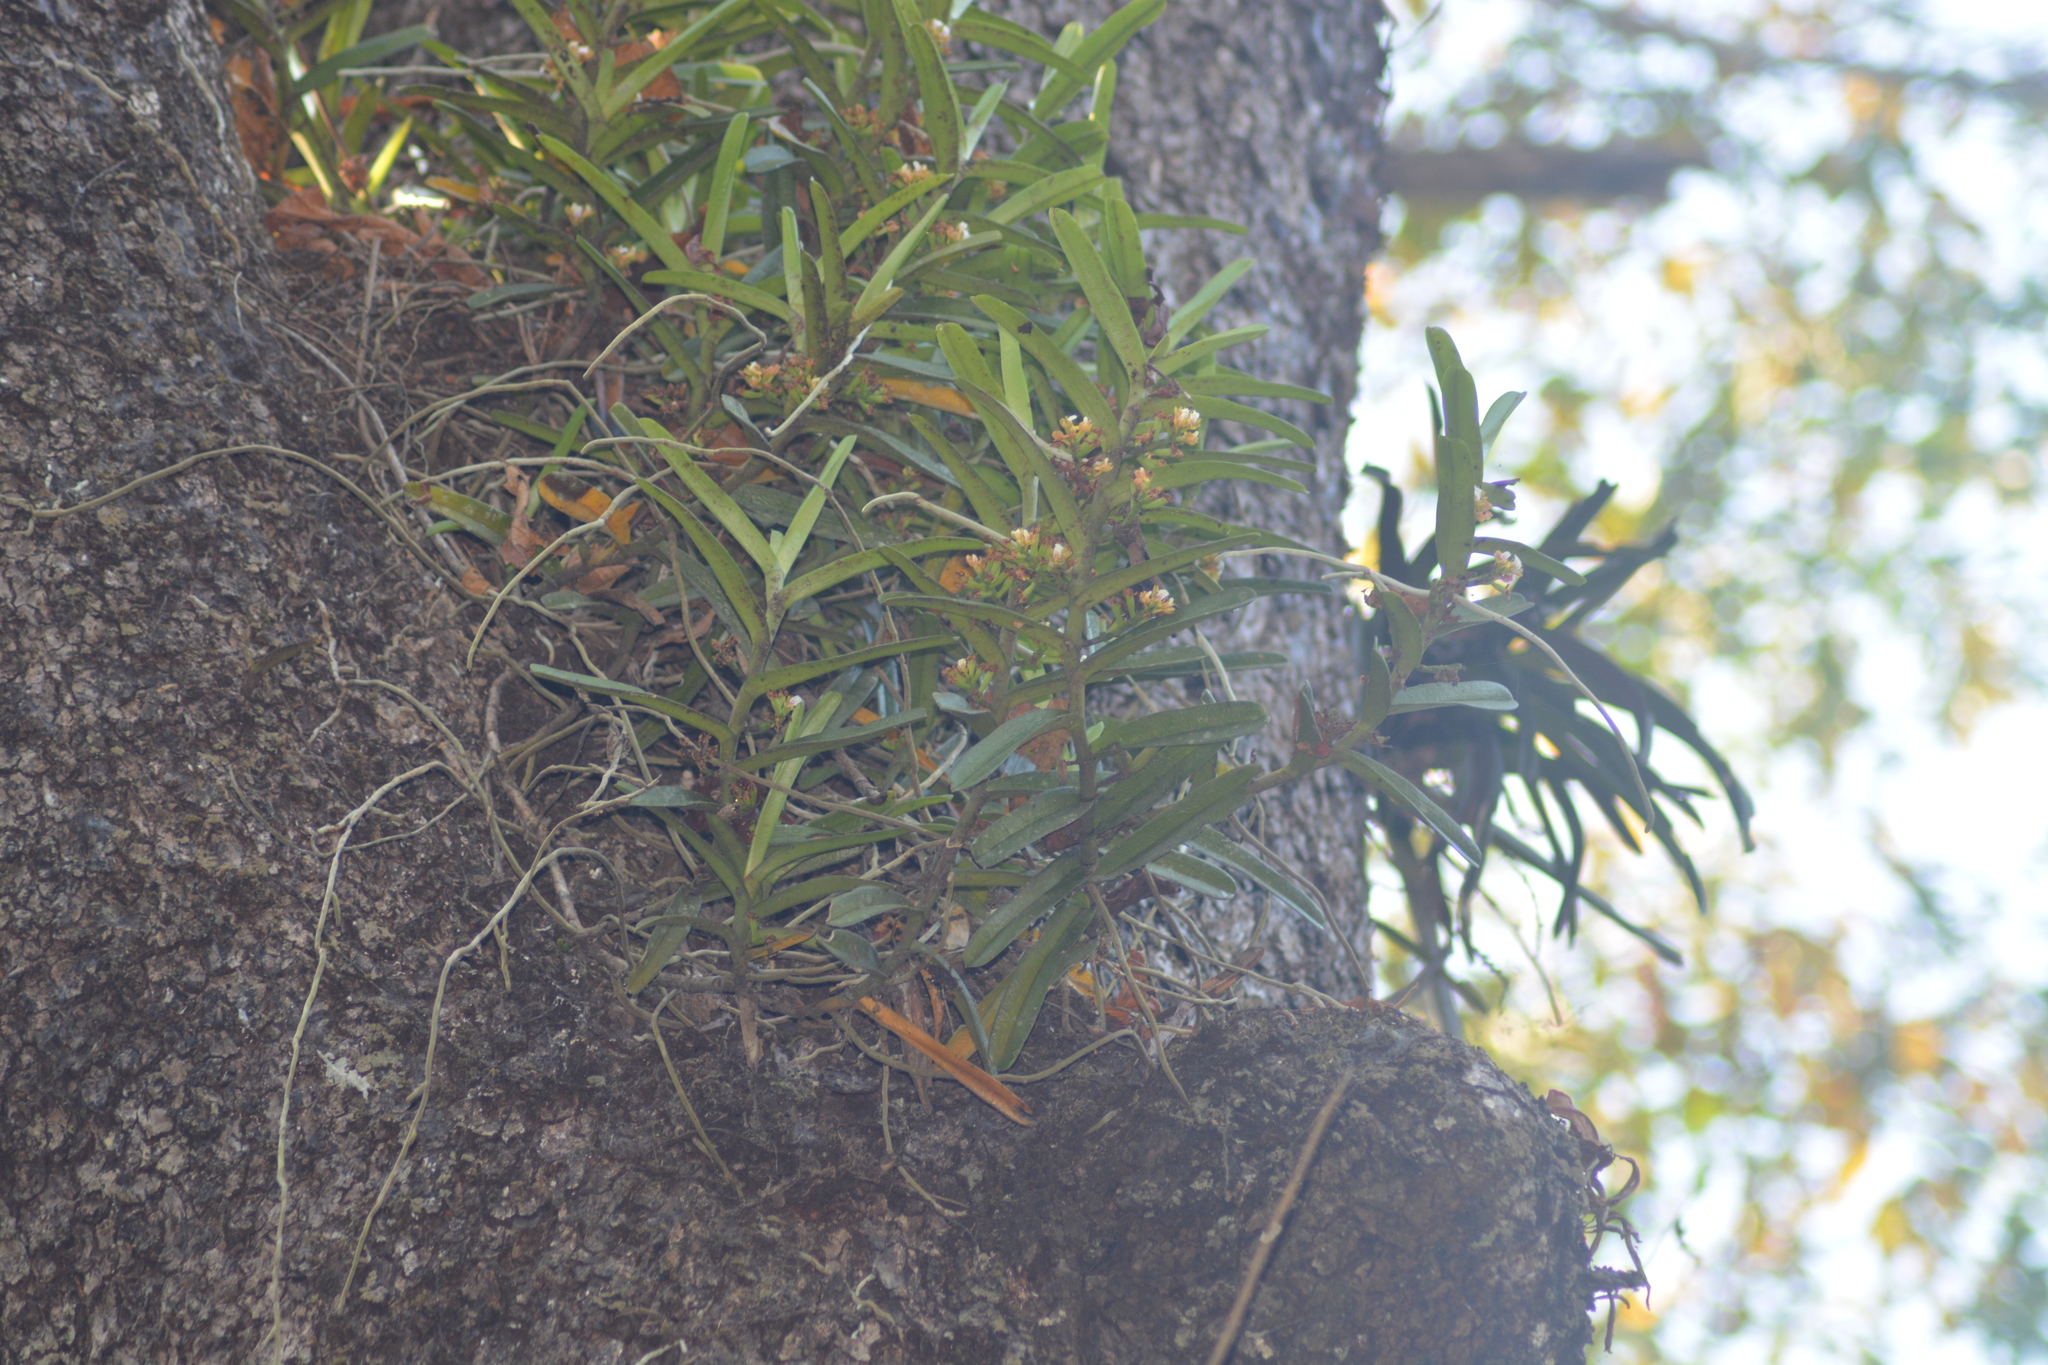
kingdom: Plantae
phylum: Tracheophyta
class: Liliopsida
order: Asparagales
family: Orchidaceae
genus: Acampe
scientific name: Acampe praemorsa
